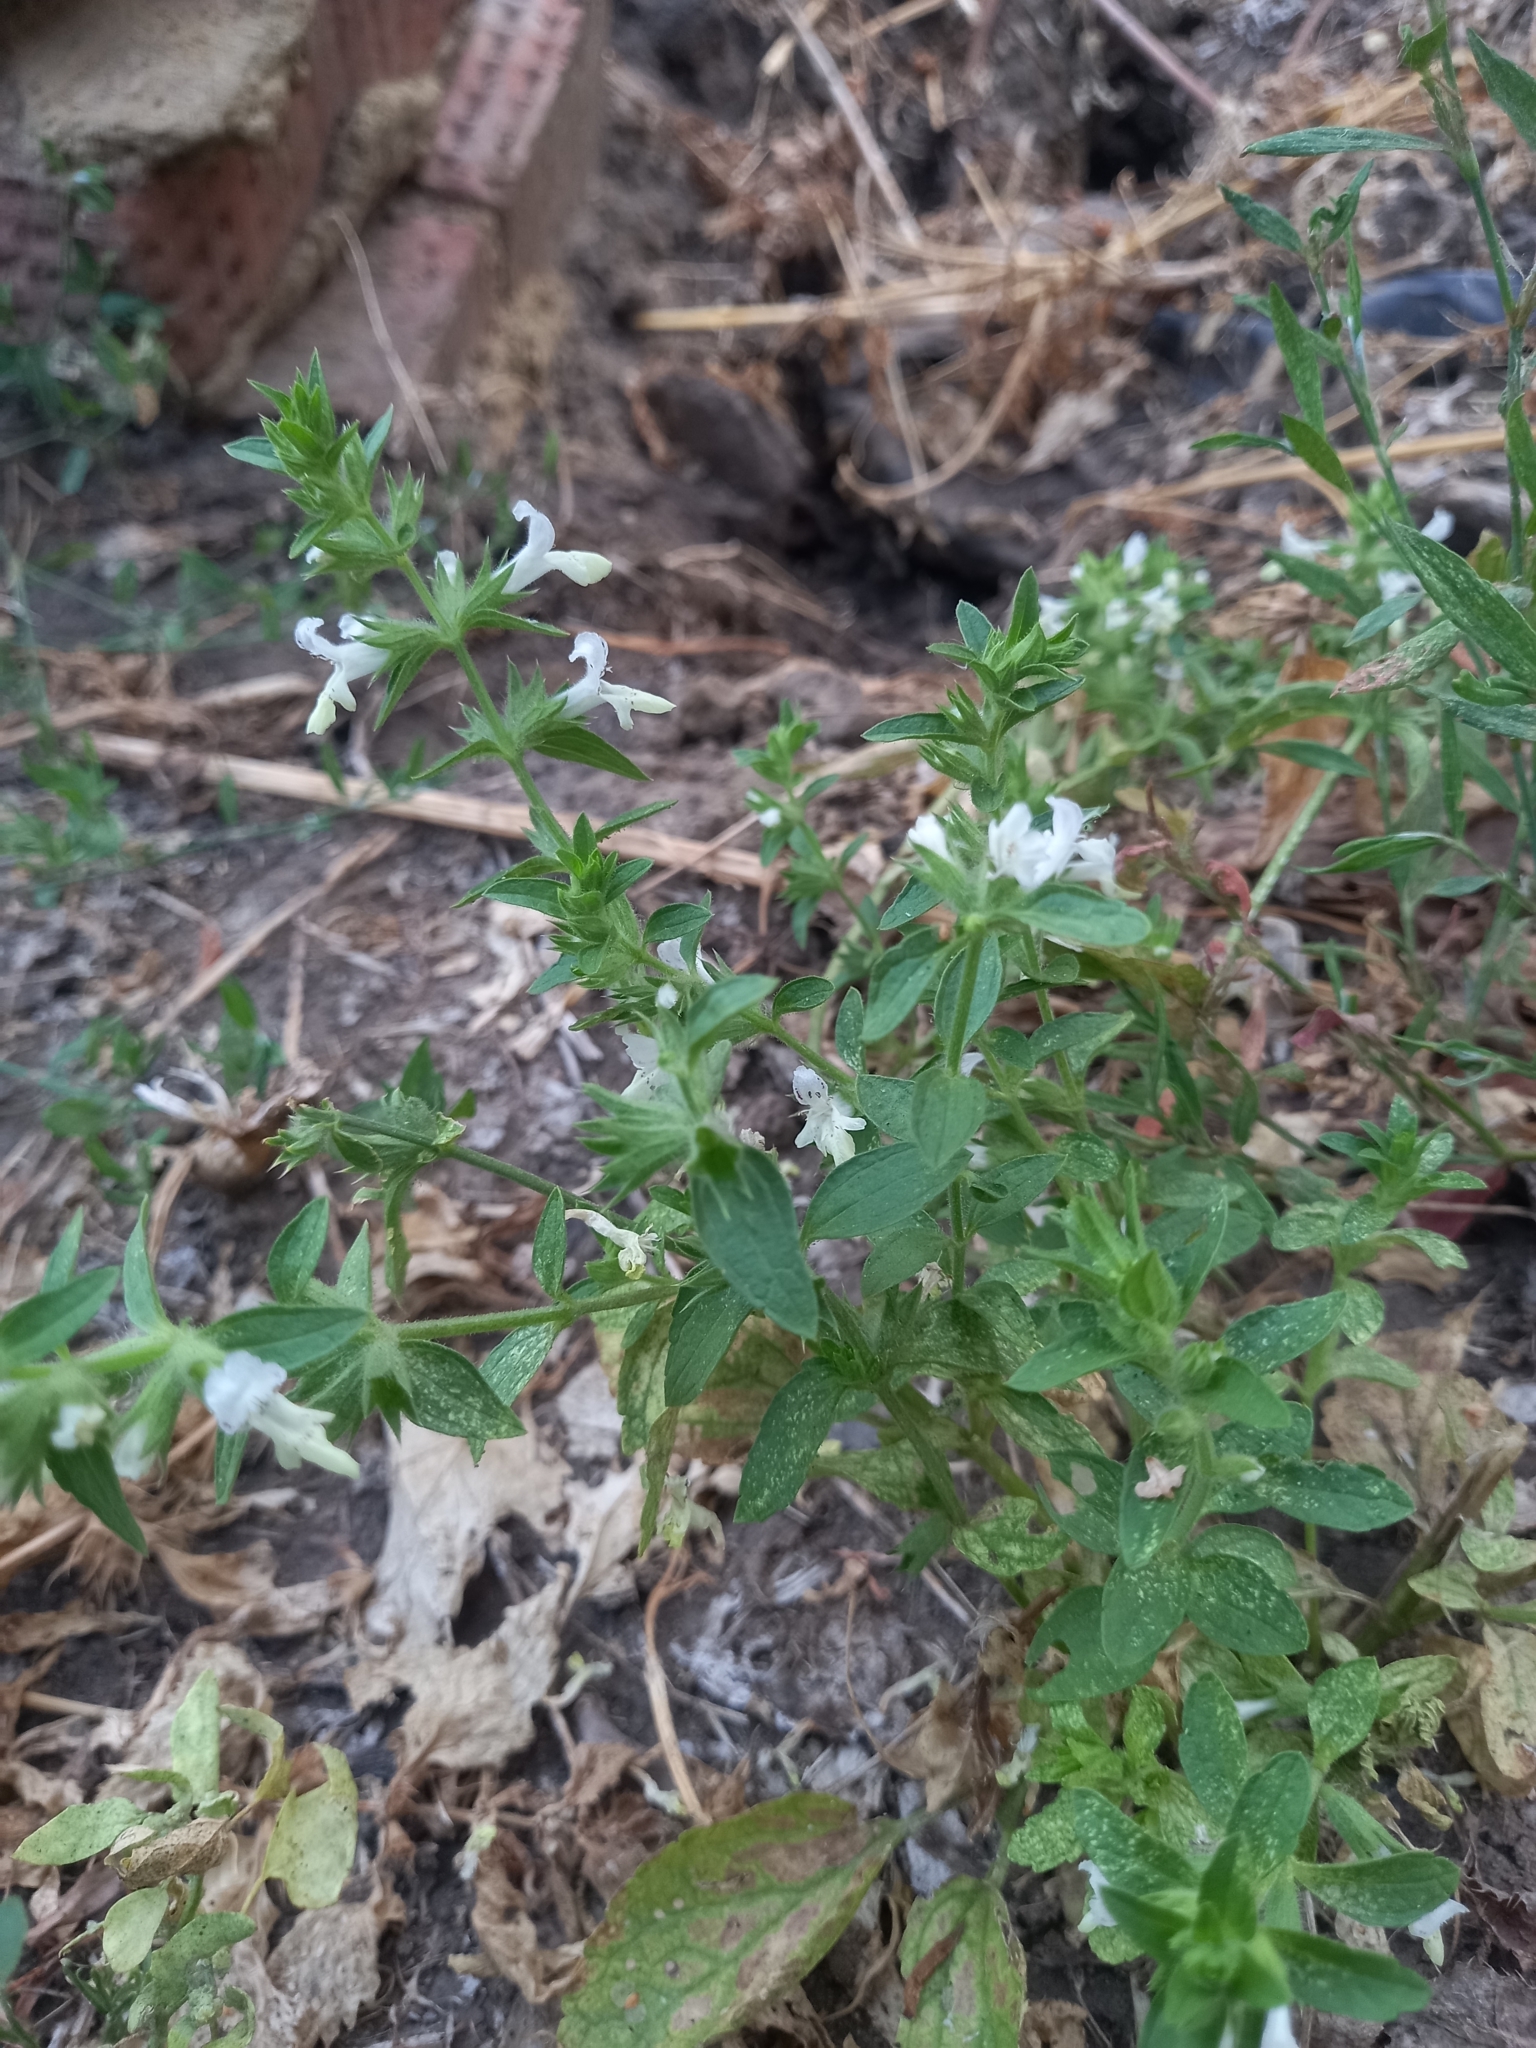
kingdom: Plantae
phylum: Tracheophyta
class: Magnoliopsida
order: Lamiales
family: Lamiaceae
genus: Stachys
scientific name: Stachys annua
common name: Annual yellow-woundwort
